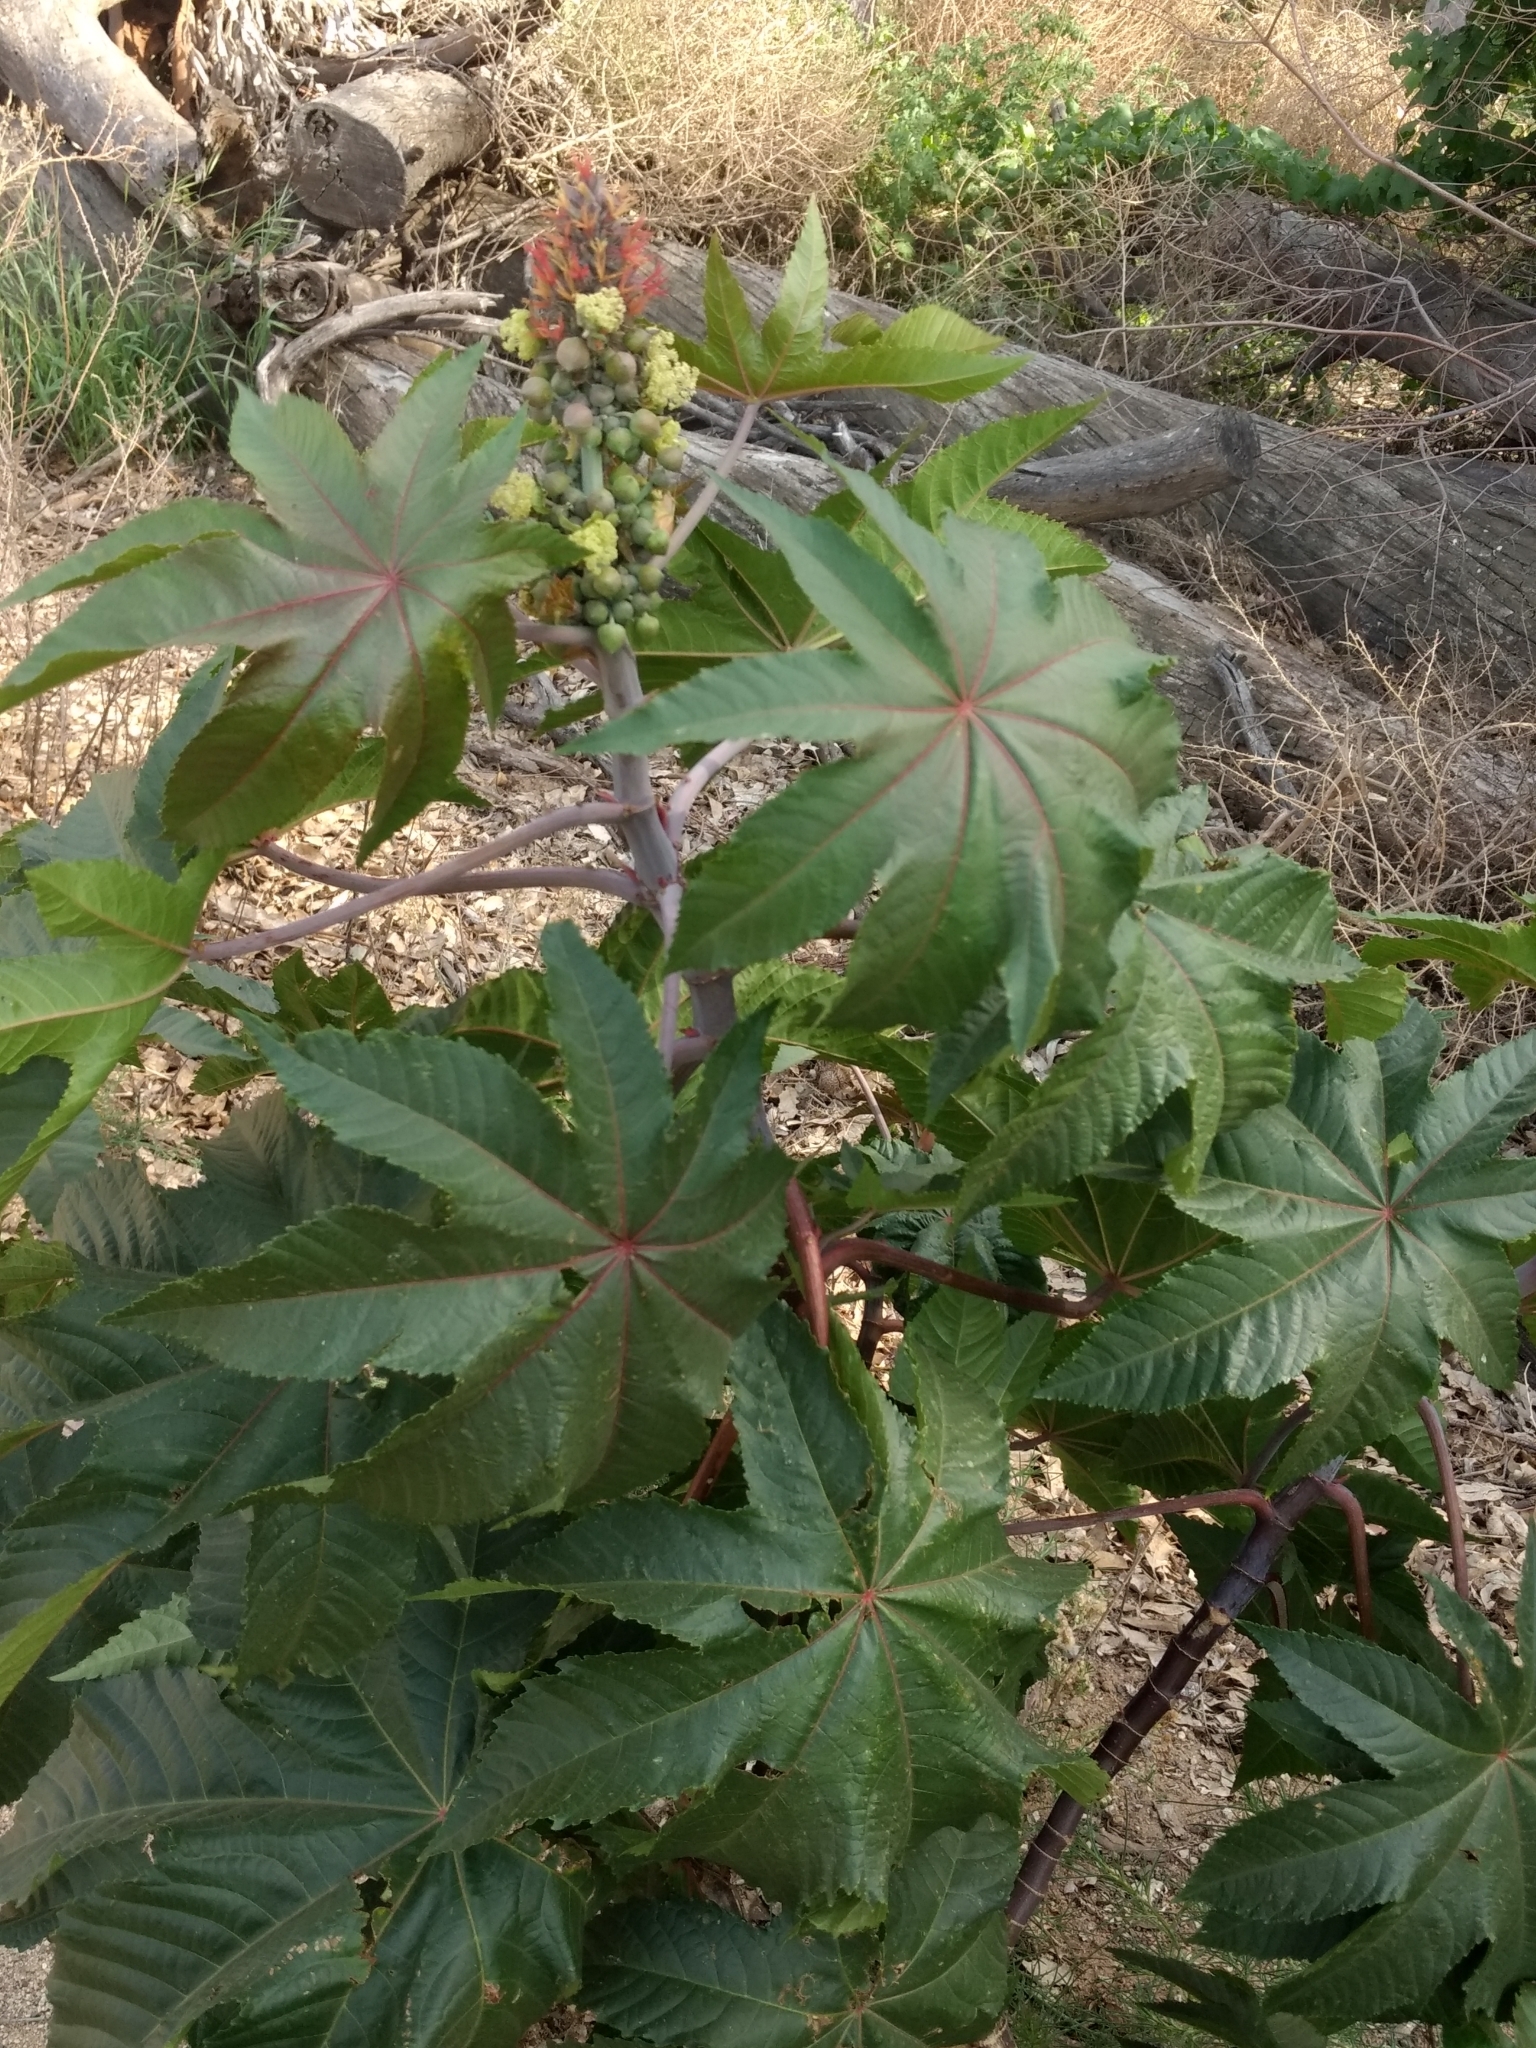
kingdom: Plantae
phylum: Tracheophyta
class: Magnoliopsida
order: Malpighiales
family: Euphorbiaceae
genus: Ricinus
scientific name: Ricinus communis
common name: Castor-oil-plant
